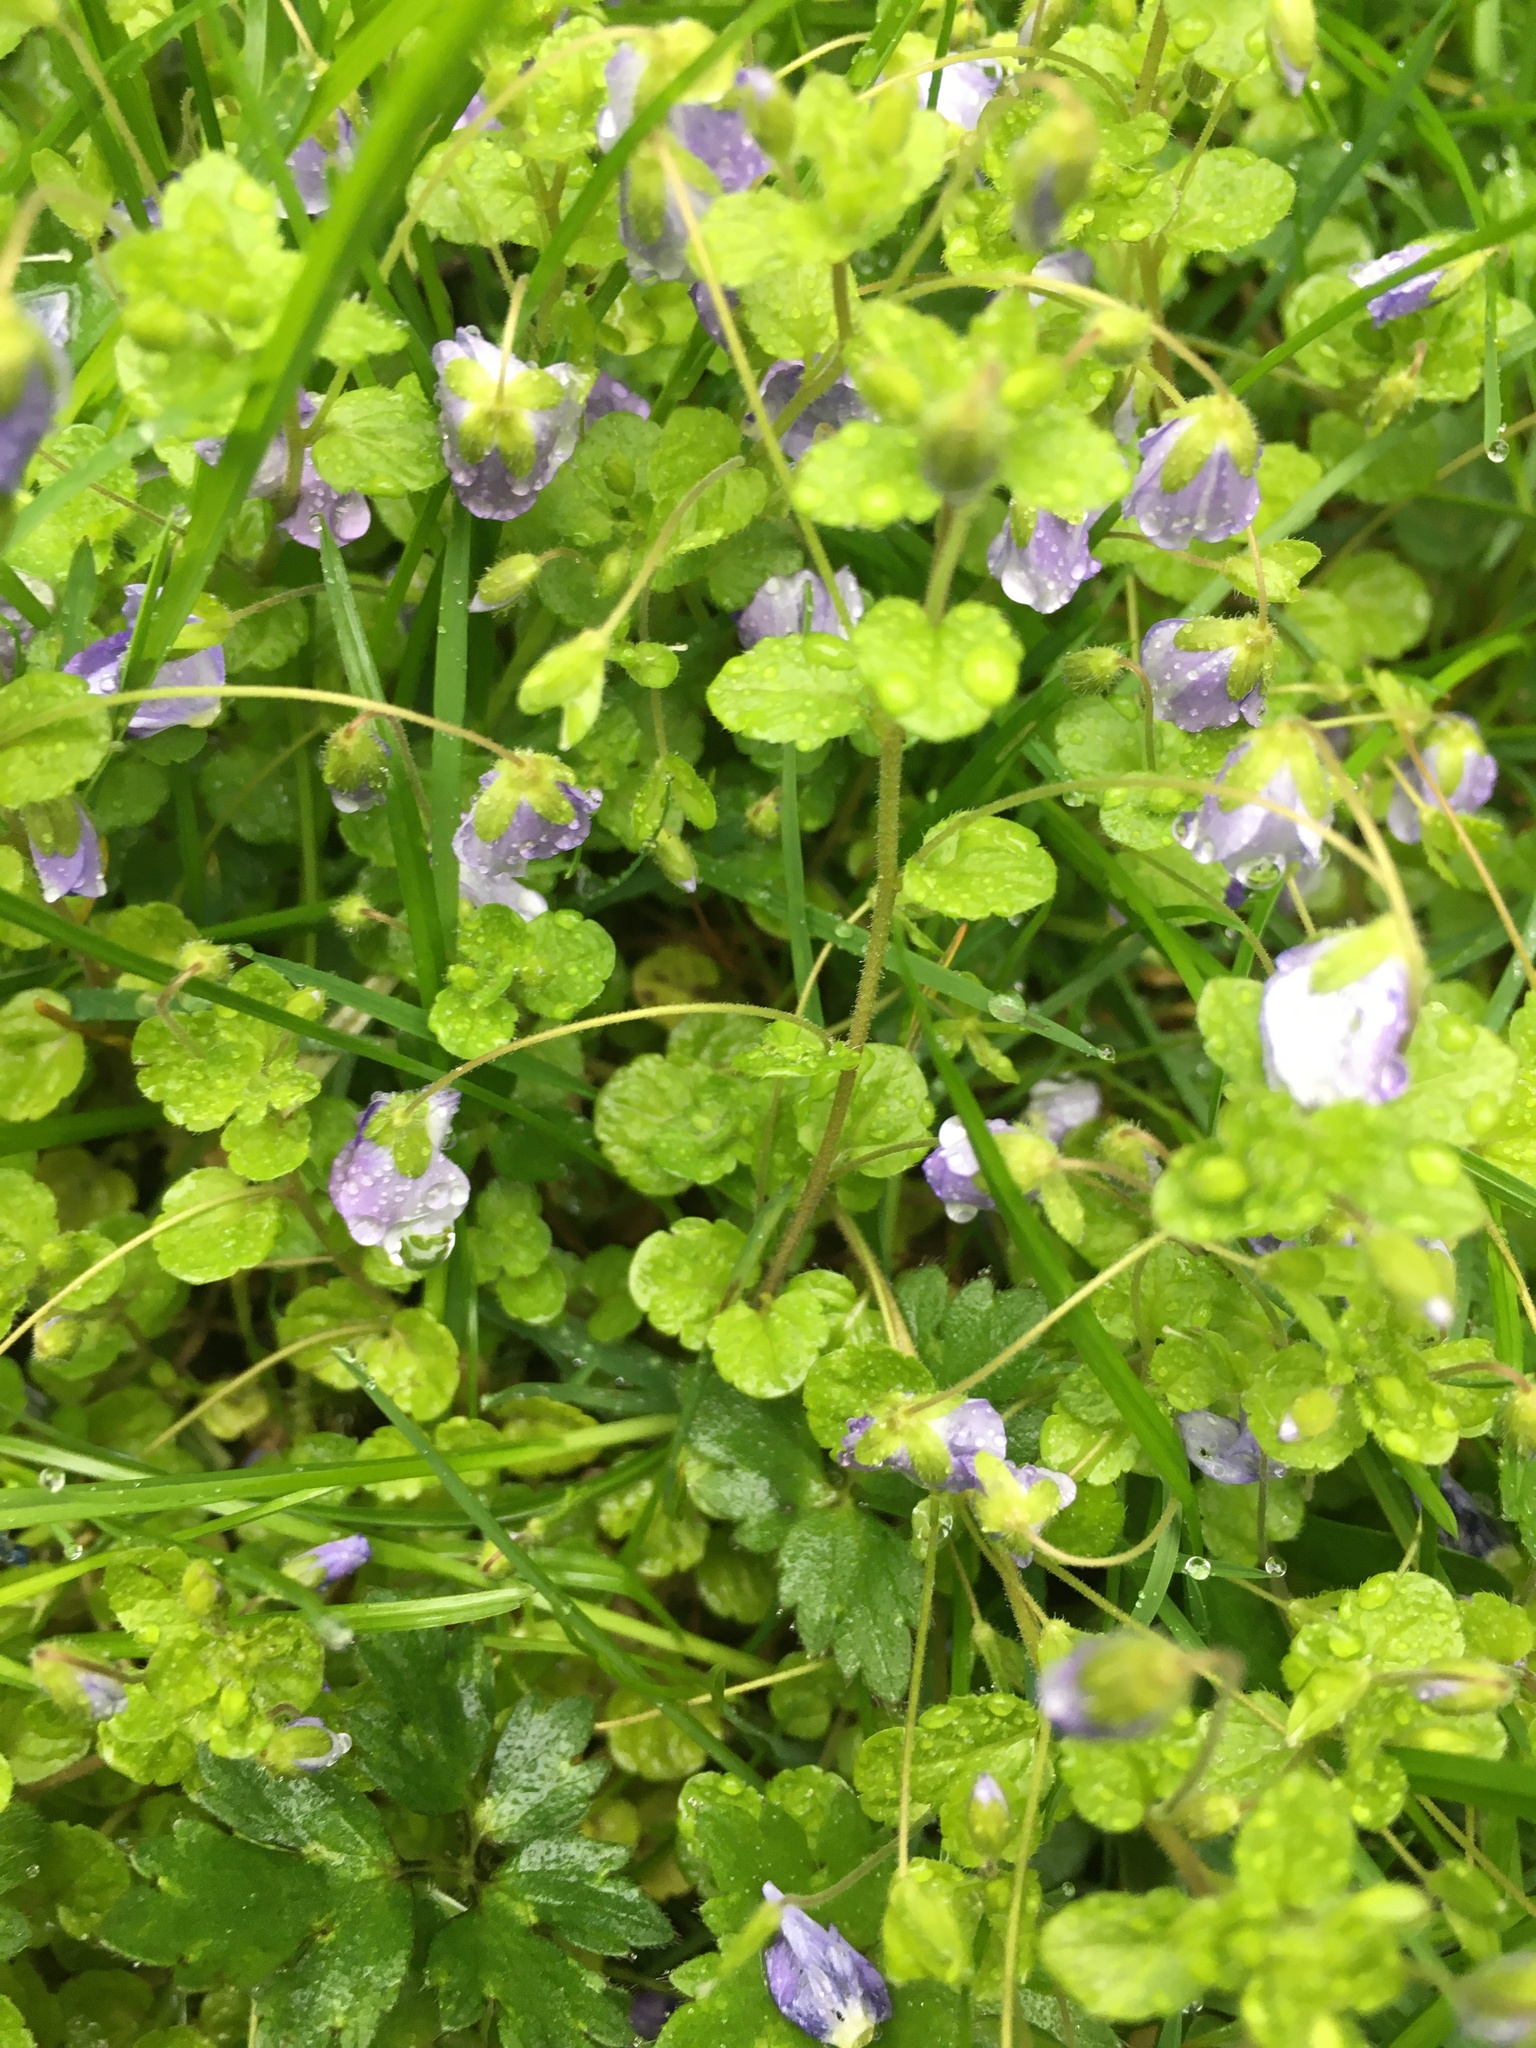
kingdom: Plantae
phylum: Tracheophyta
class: Magnoliopsida
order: Lamiales
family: Plantaginaceae
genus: Veronica
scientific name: Veronica filiformis
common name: Slender speedwell
